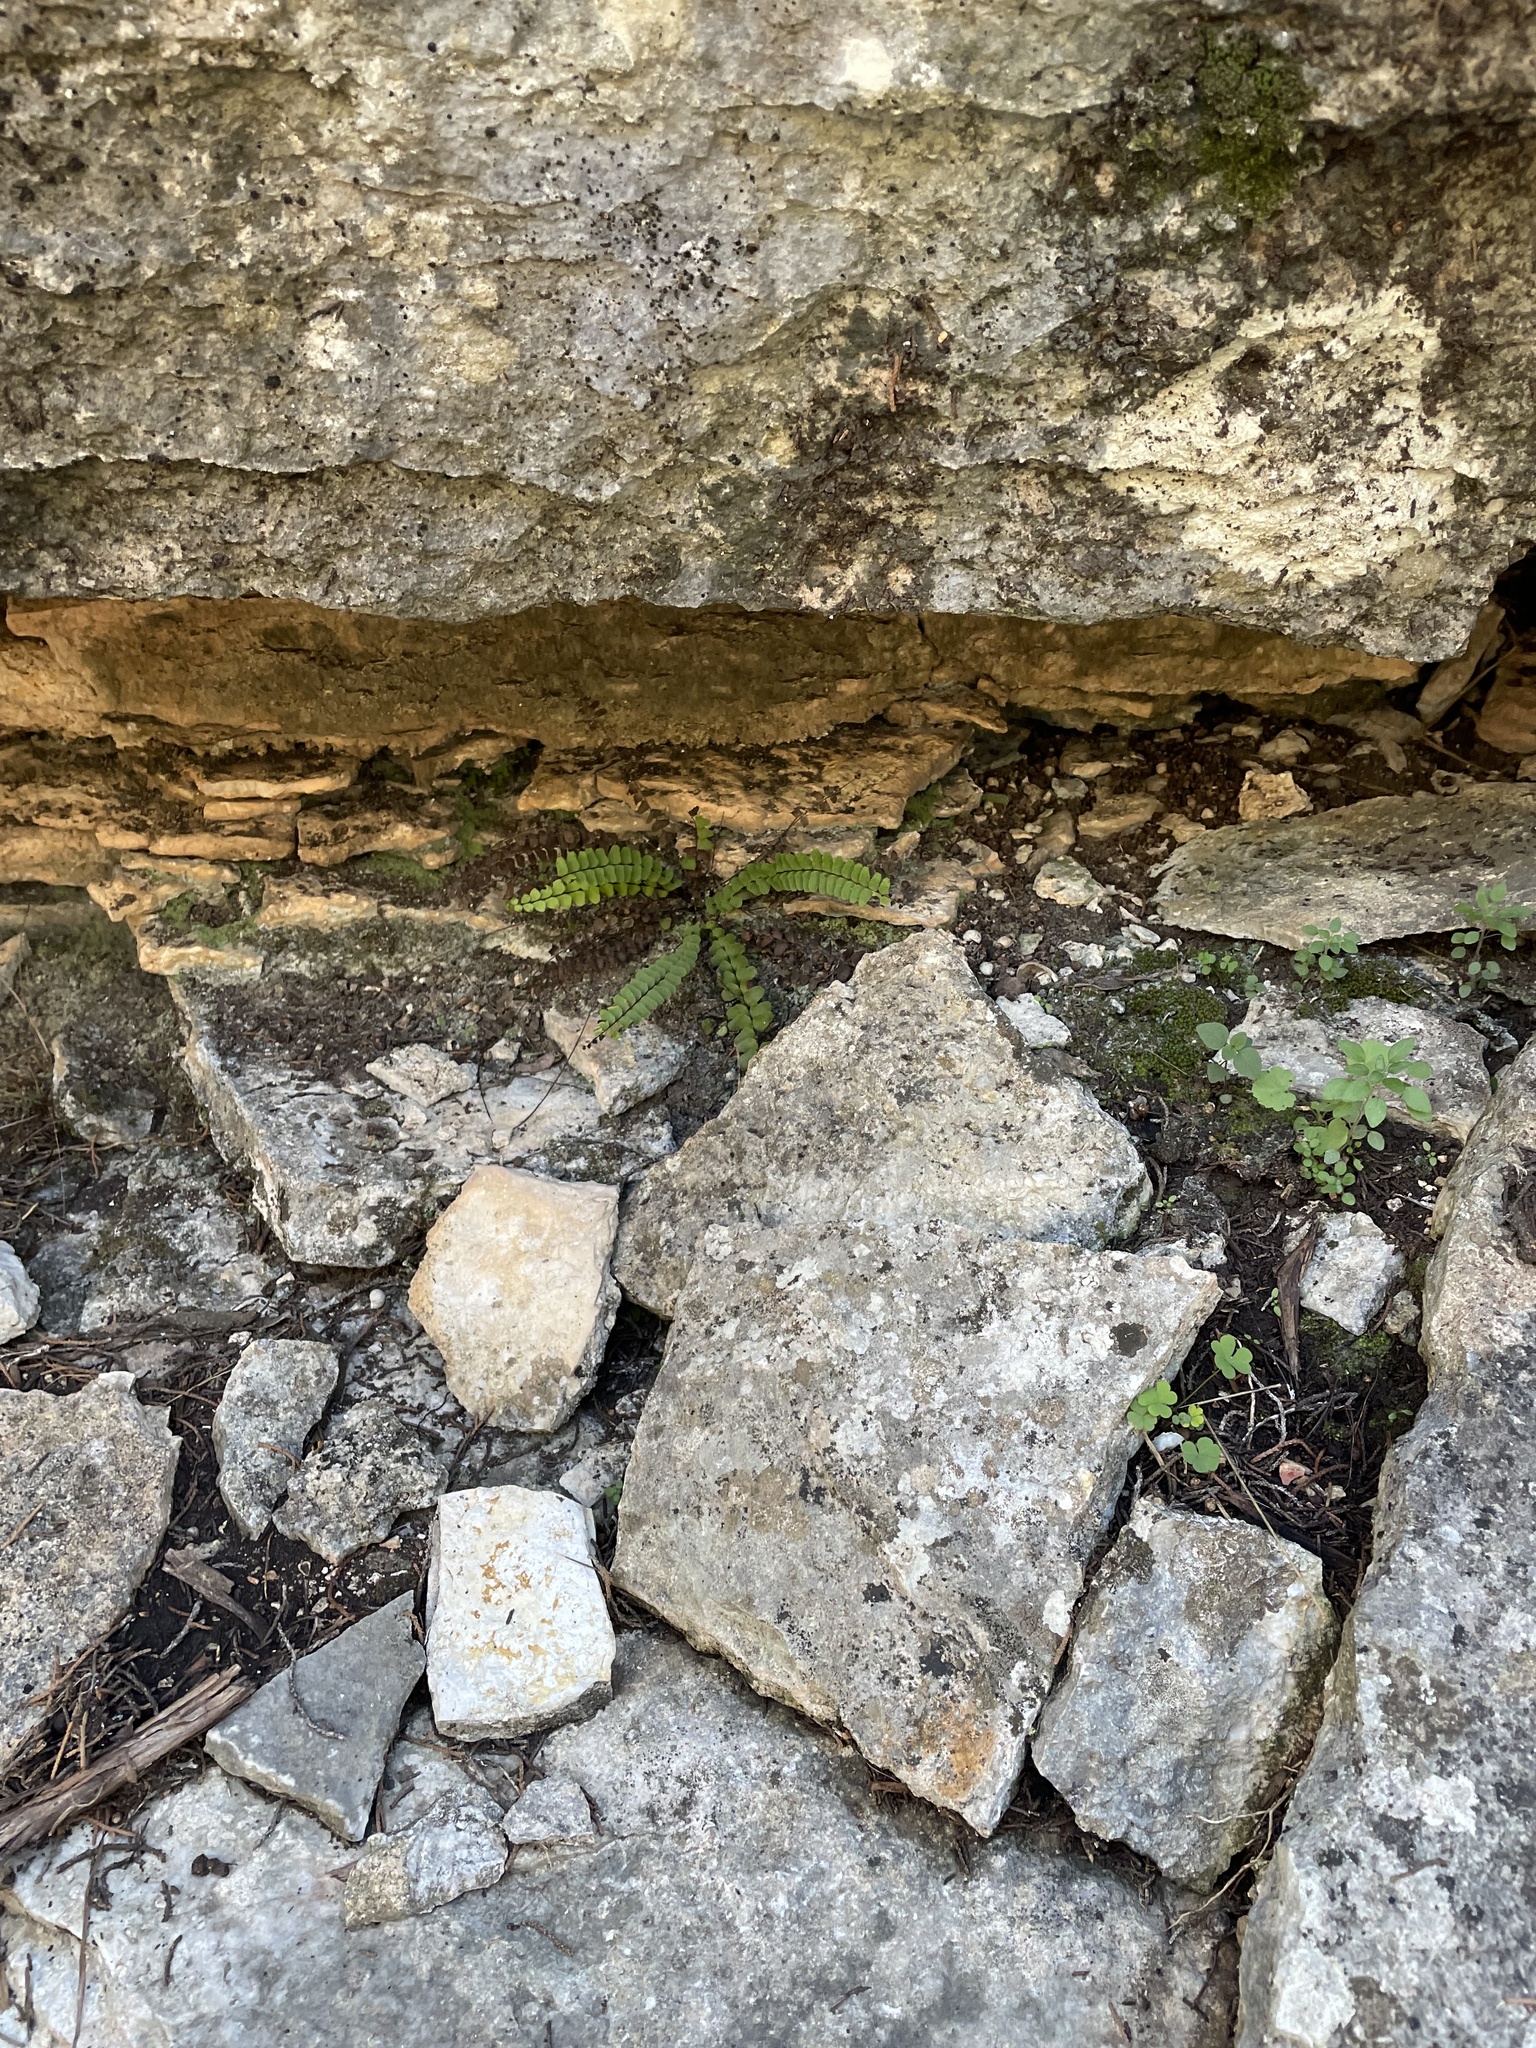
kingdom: Plantae
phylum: Tracheophyta
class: Polypodiopsida
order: Polypodiales
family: Aspleniaceae
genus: Asplenium
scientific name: Asplenium resiliens
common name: Blackstem spleenwort
